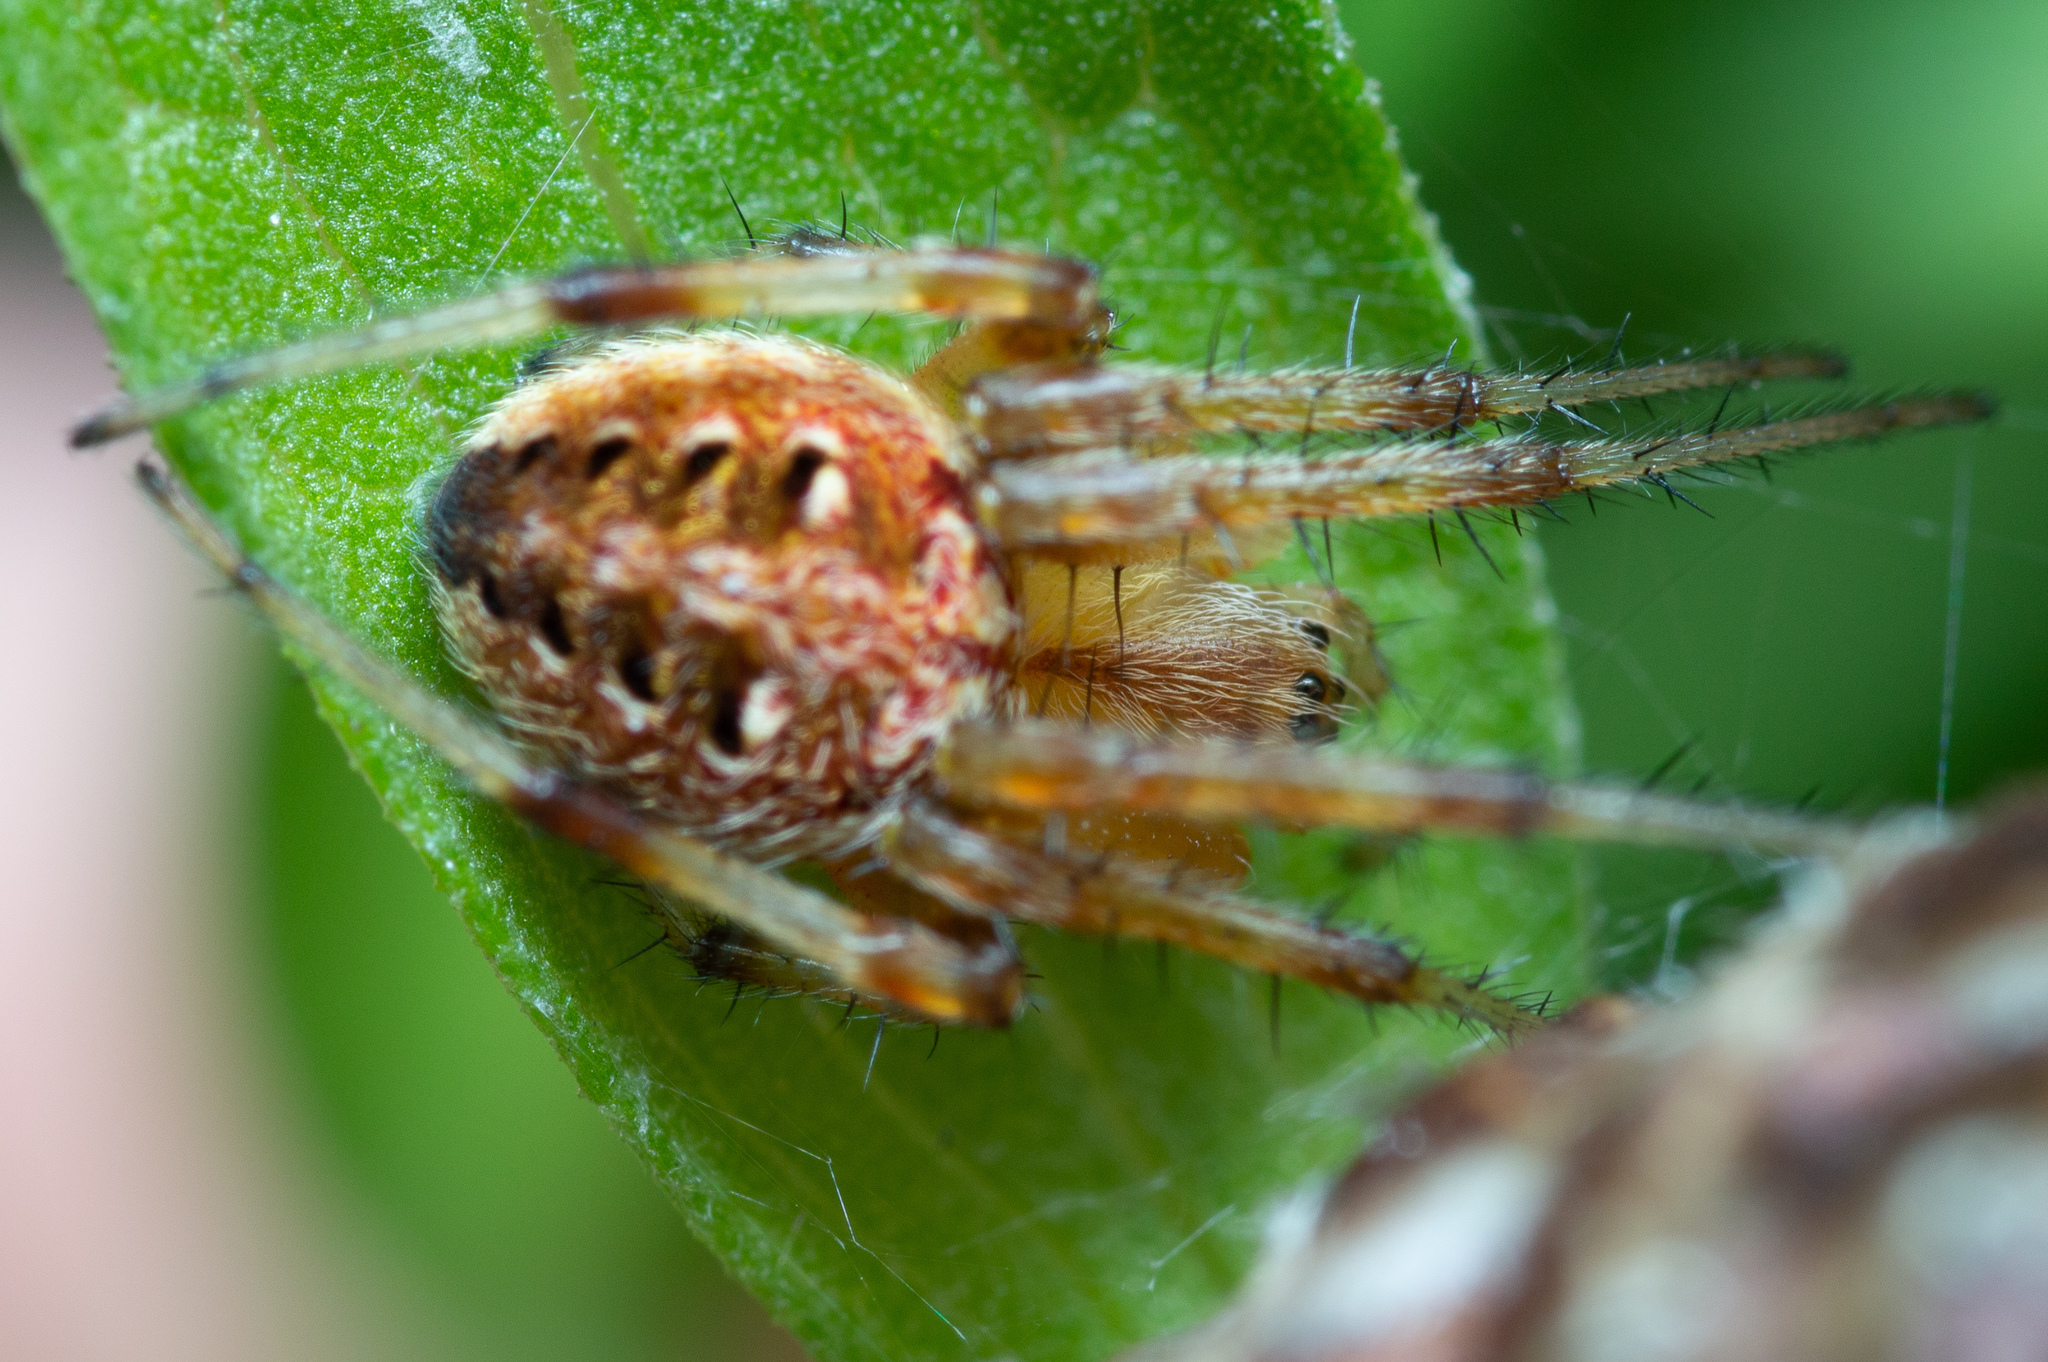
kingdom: Animalia
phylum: Arthropoda
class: Arachnida
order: Araneae
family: Araneidae
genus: Neoscona
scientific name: Neoscona arabesca
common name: Orb weavers
